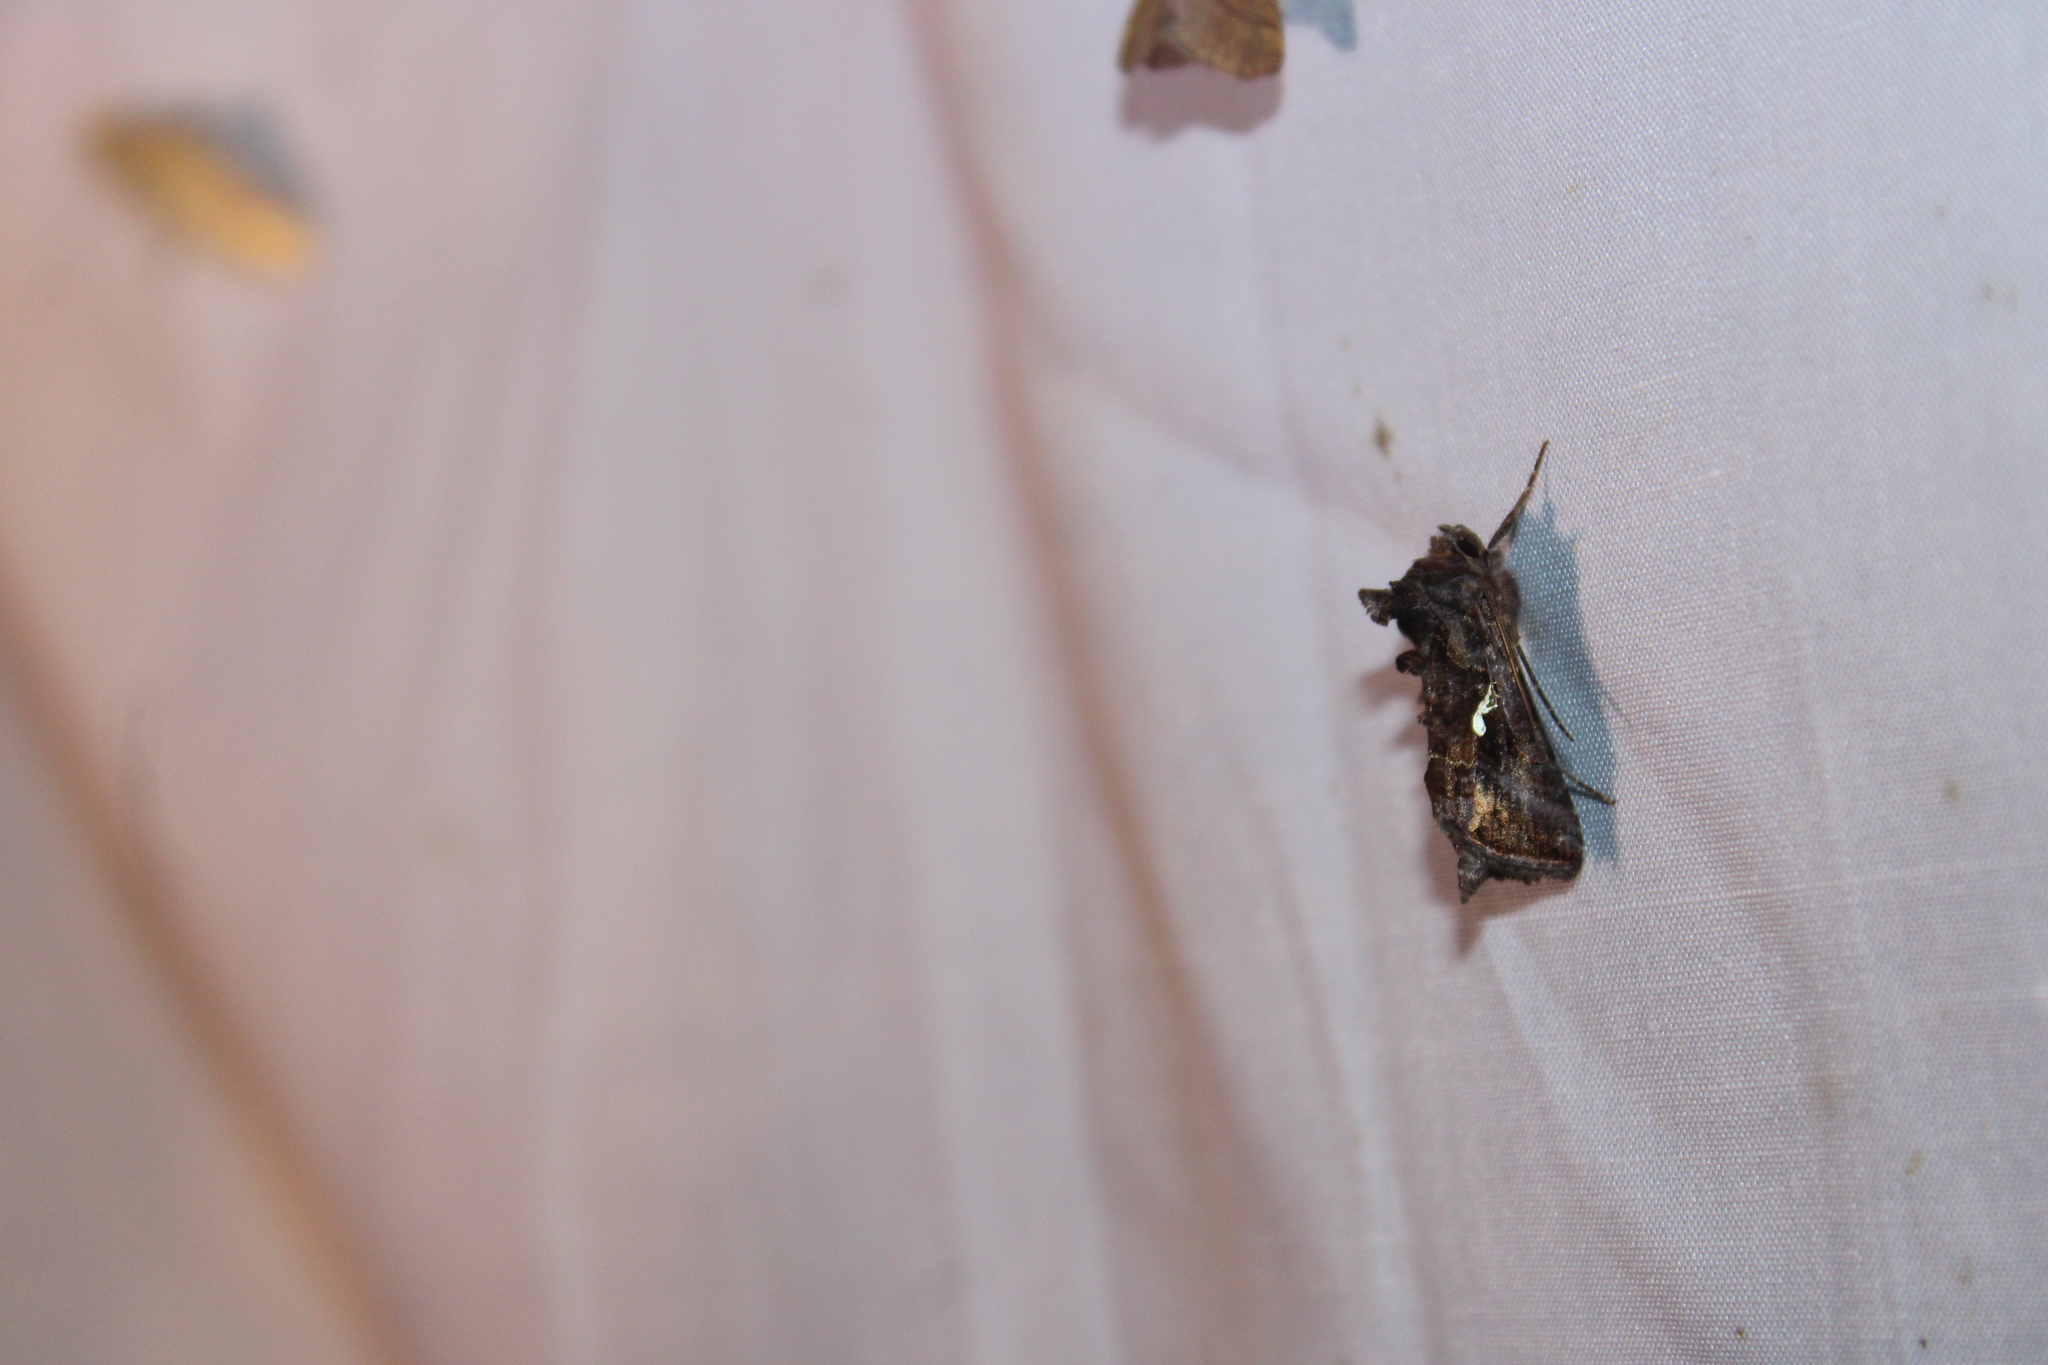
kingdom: Animalia
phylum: Arthropoda
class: Insecta
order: Lepidoptera
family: Noctuidae
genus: Autographa
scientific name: Autographa precationis
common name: Common looper moth
